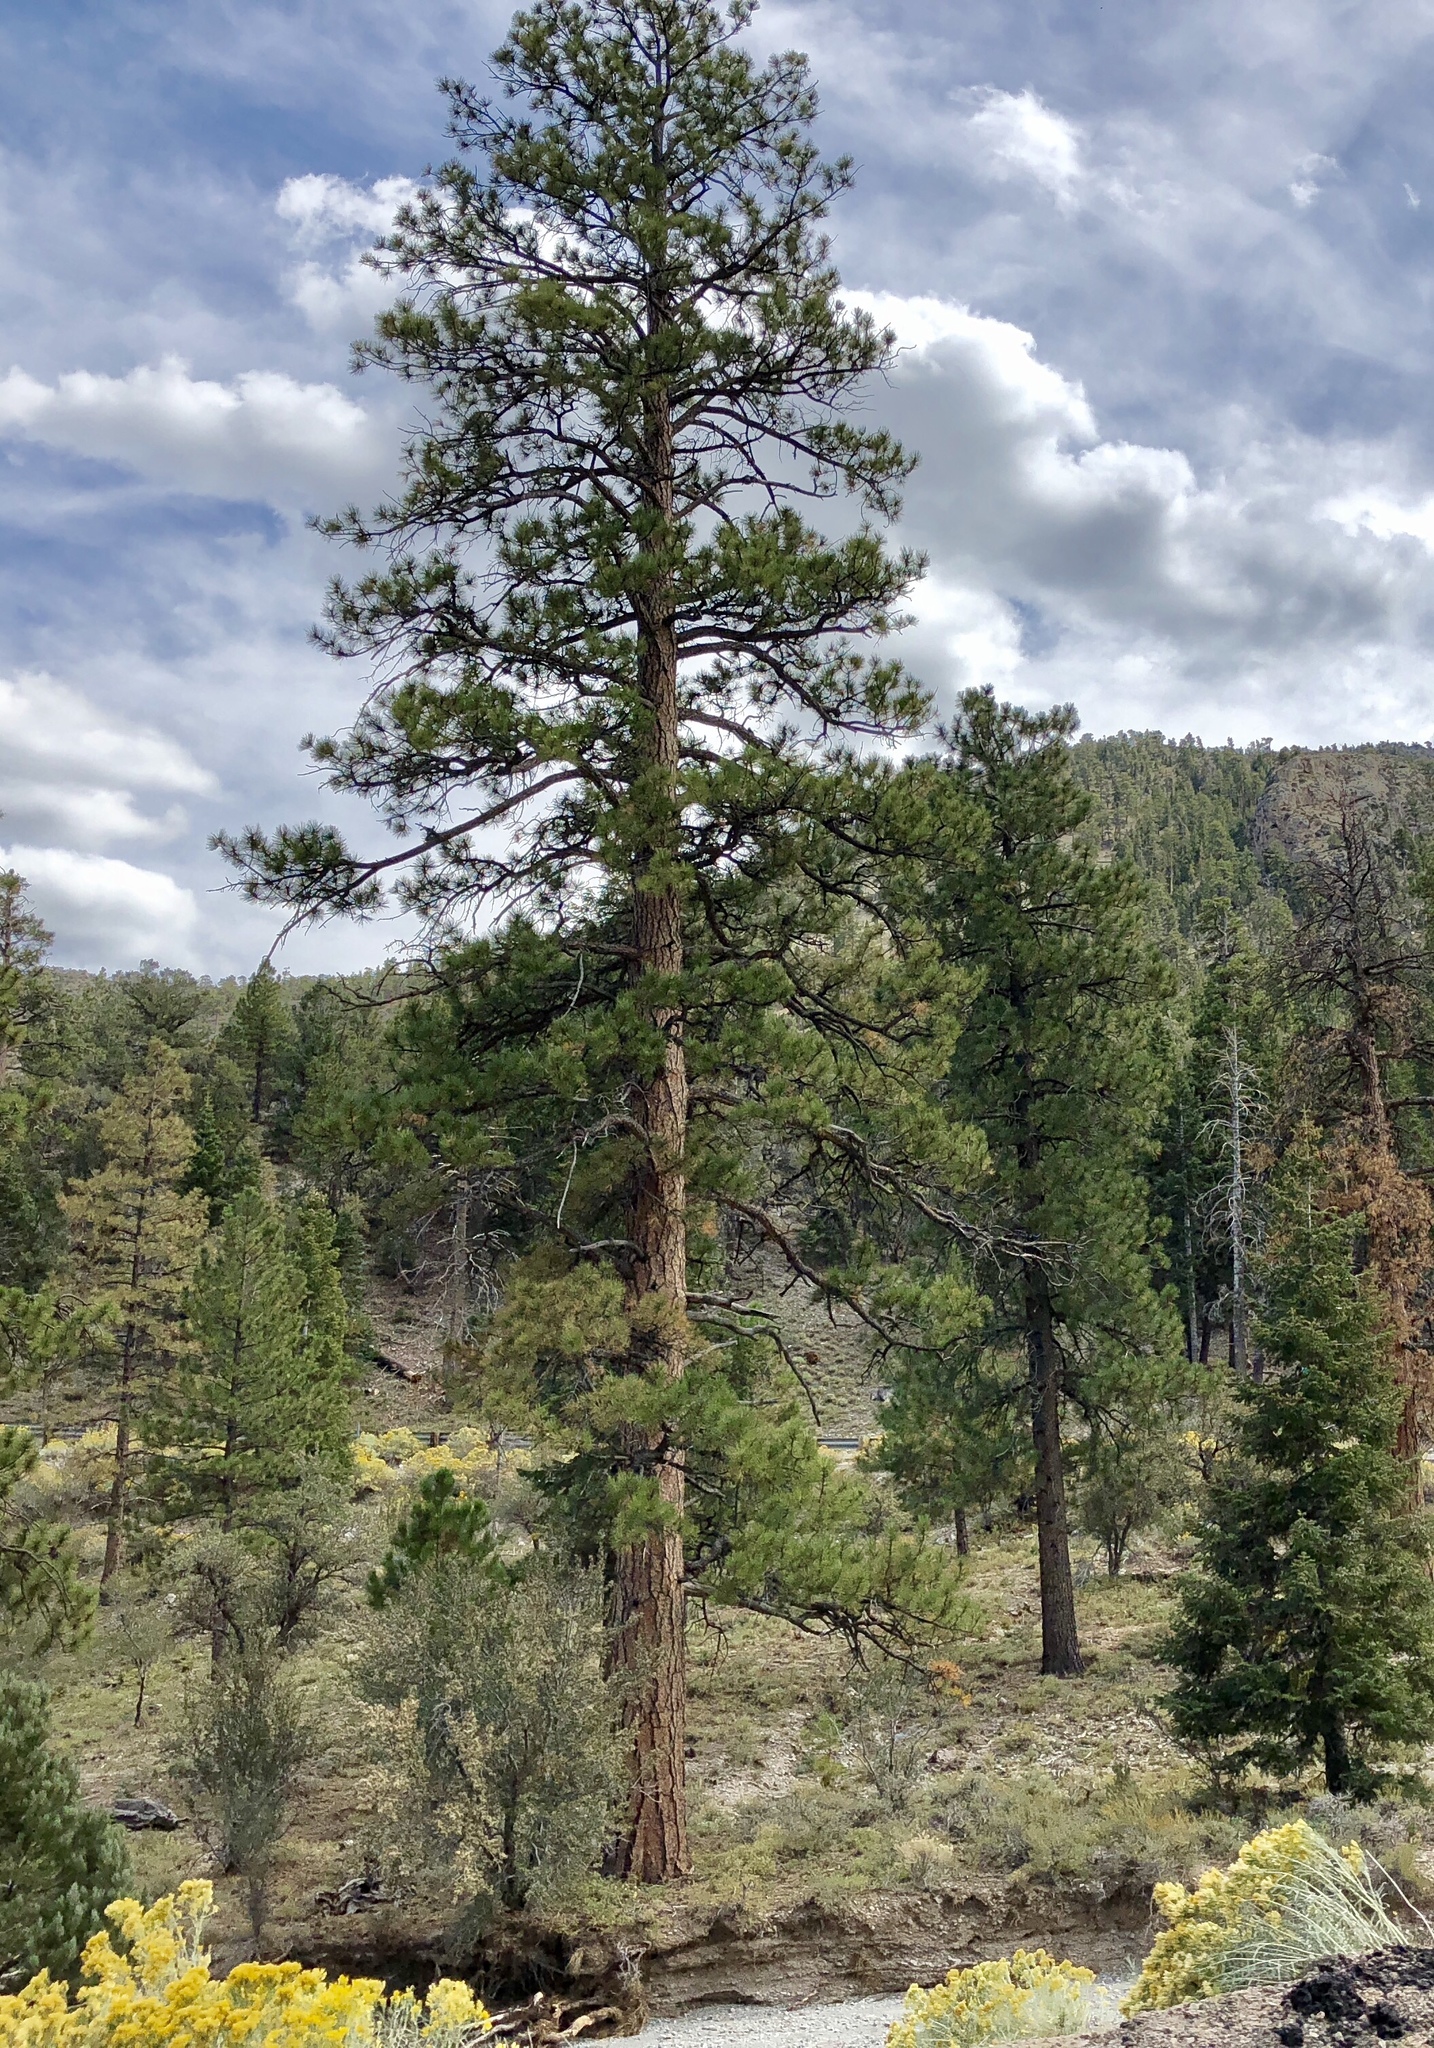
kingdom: Plantae
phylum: Tracheophyta
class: Pinopsida
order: Pinales
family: Pinaceae
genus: Pinus
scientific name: Pinus ponderosa
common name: Western yellow-pine
